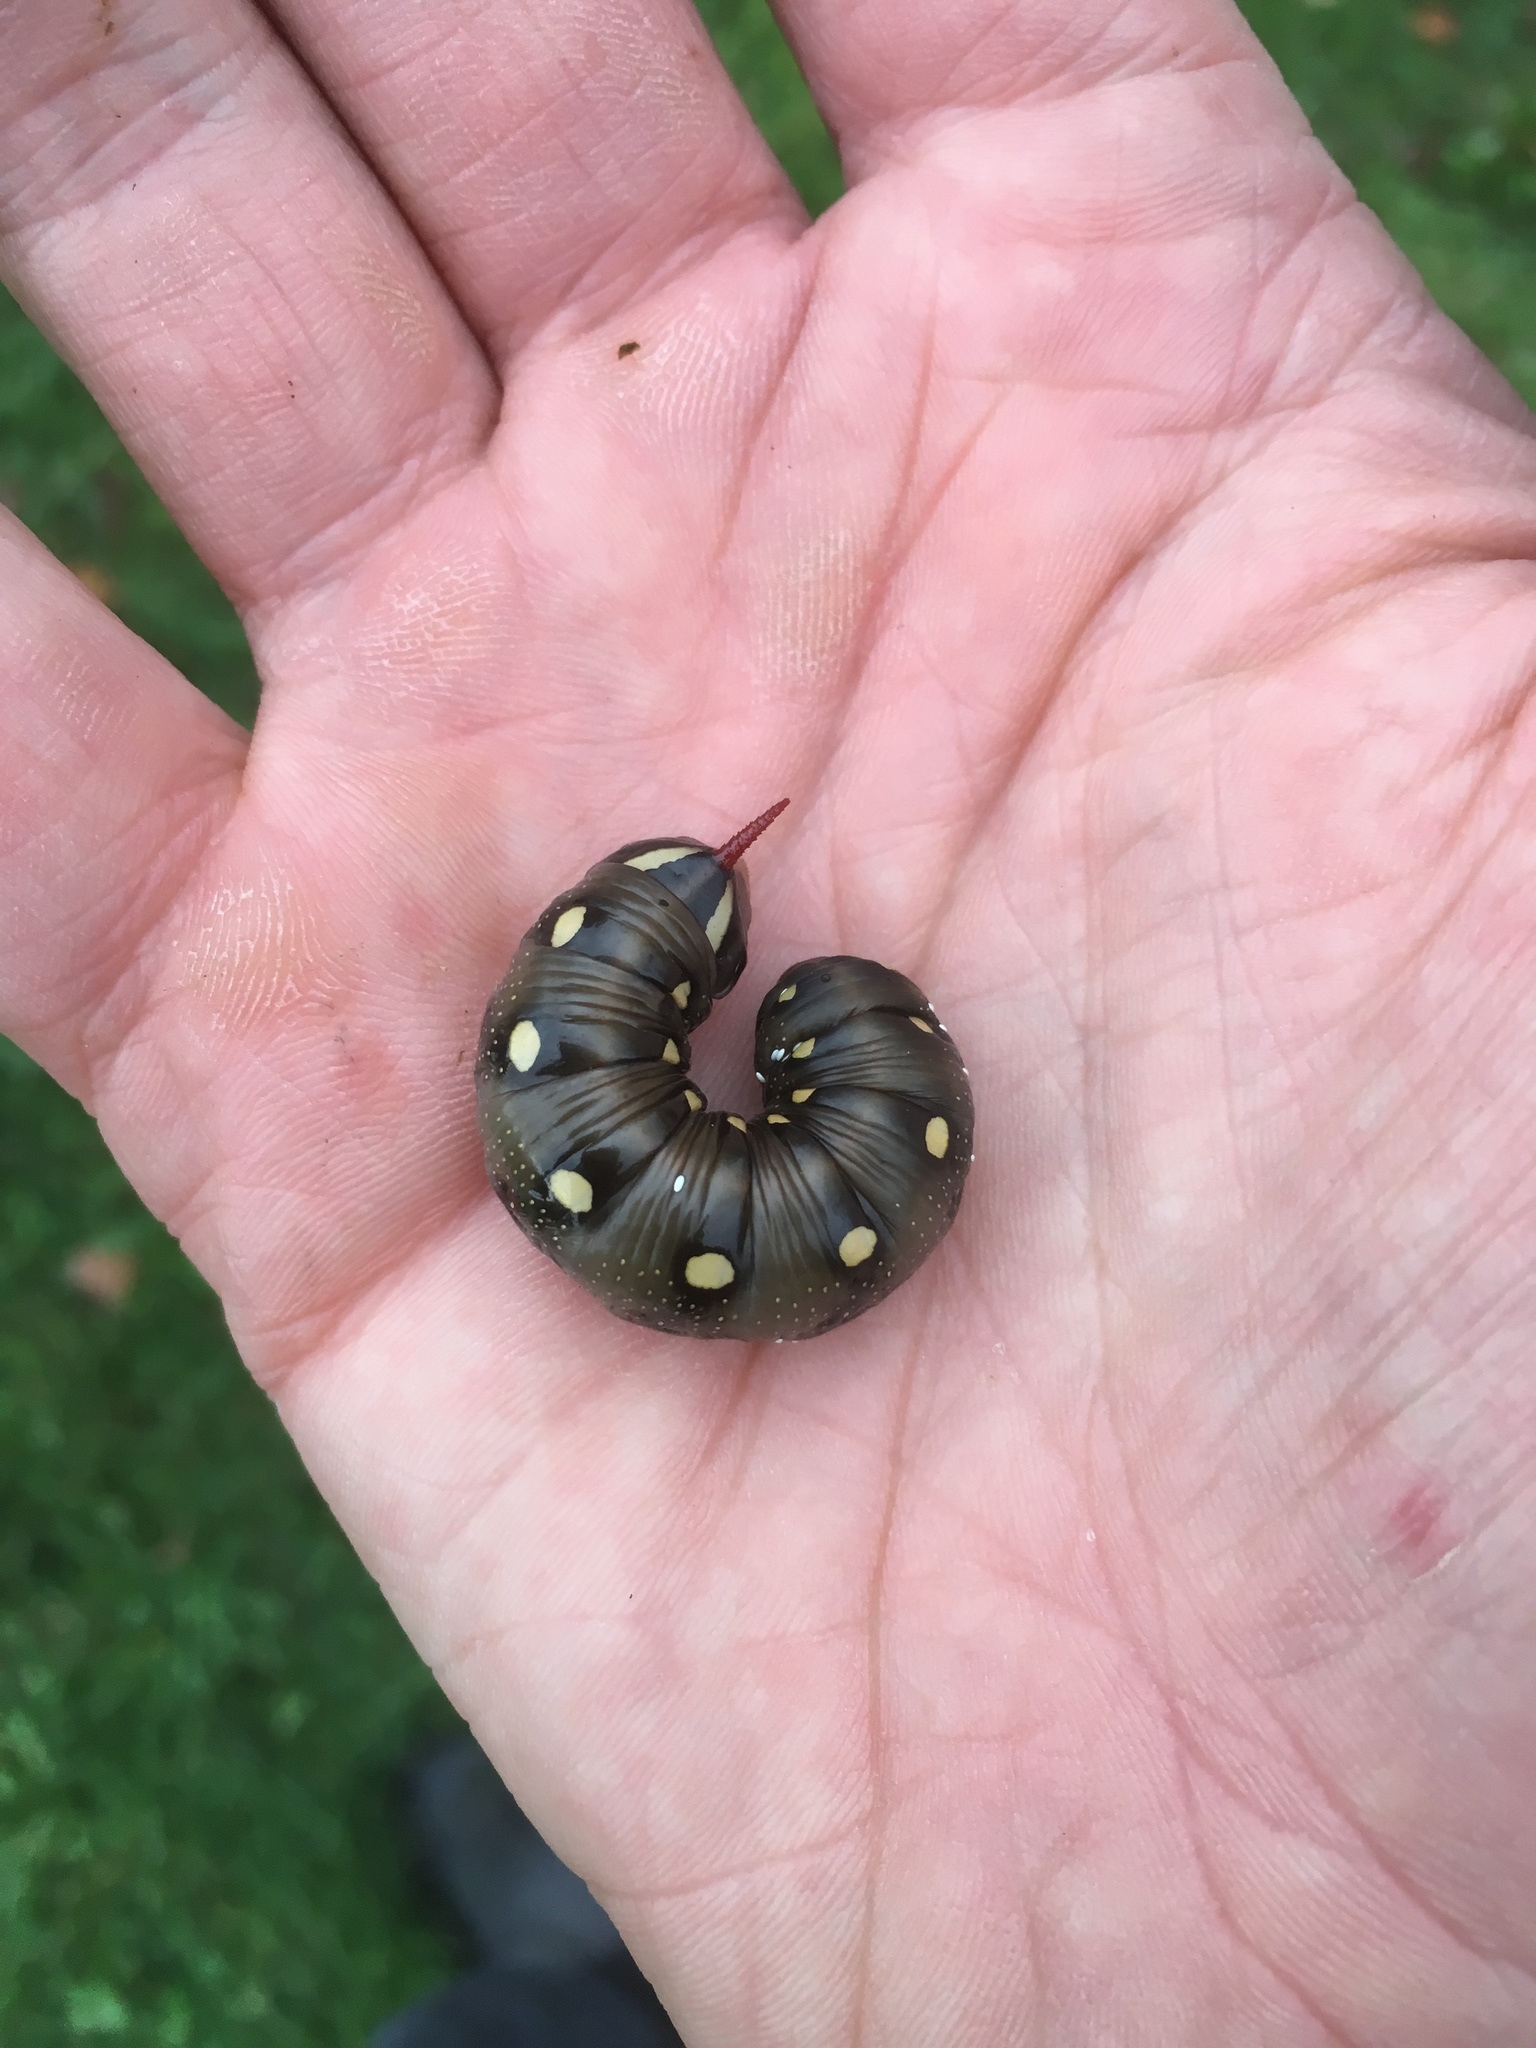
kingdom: Animalia
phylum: Arthropoda
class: Insecta
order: Lepidoptera
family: Sphingidae
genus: Hyles
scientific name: Hyles gallii
